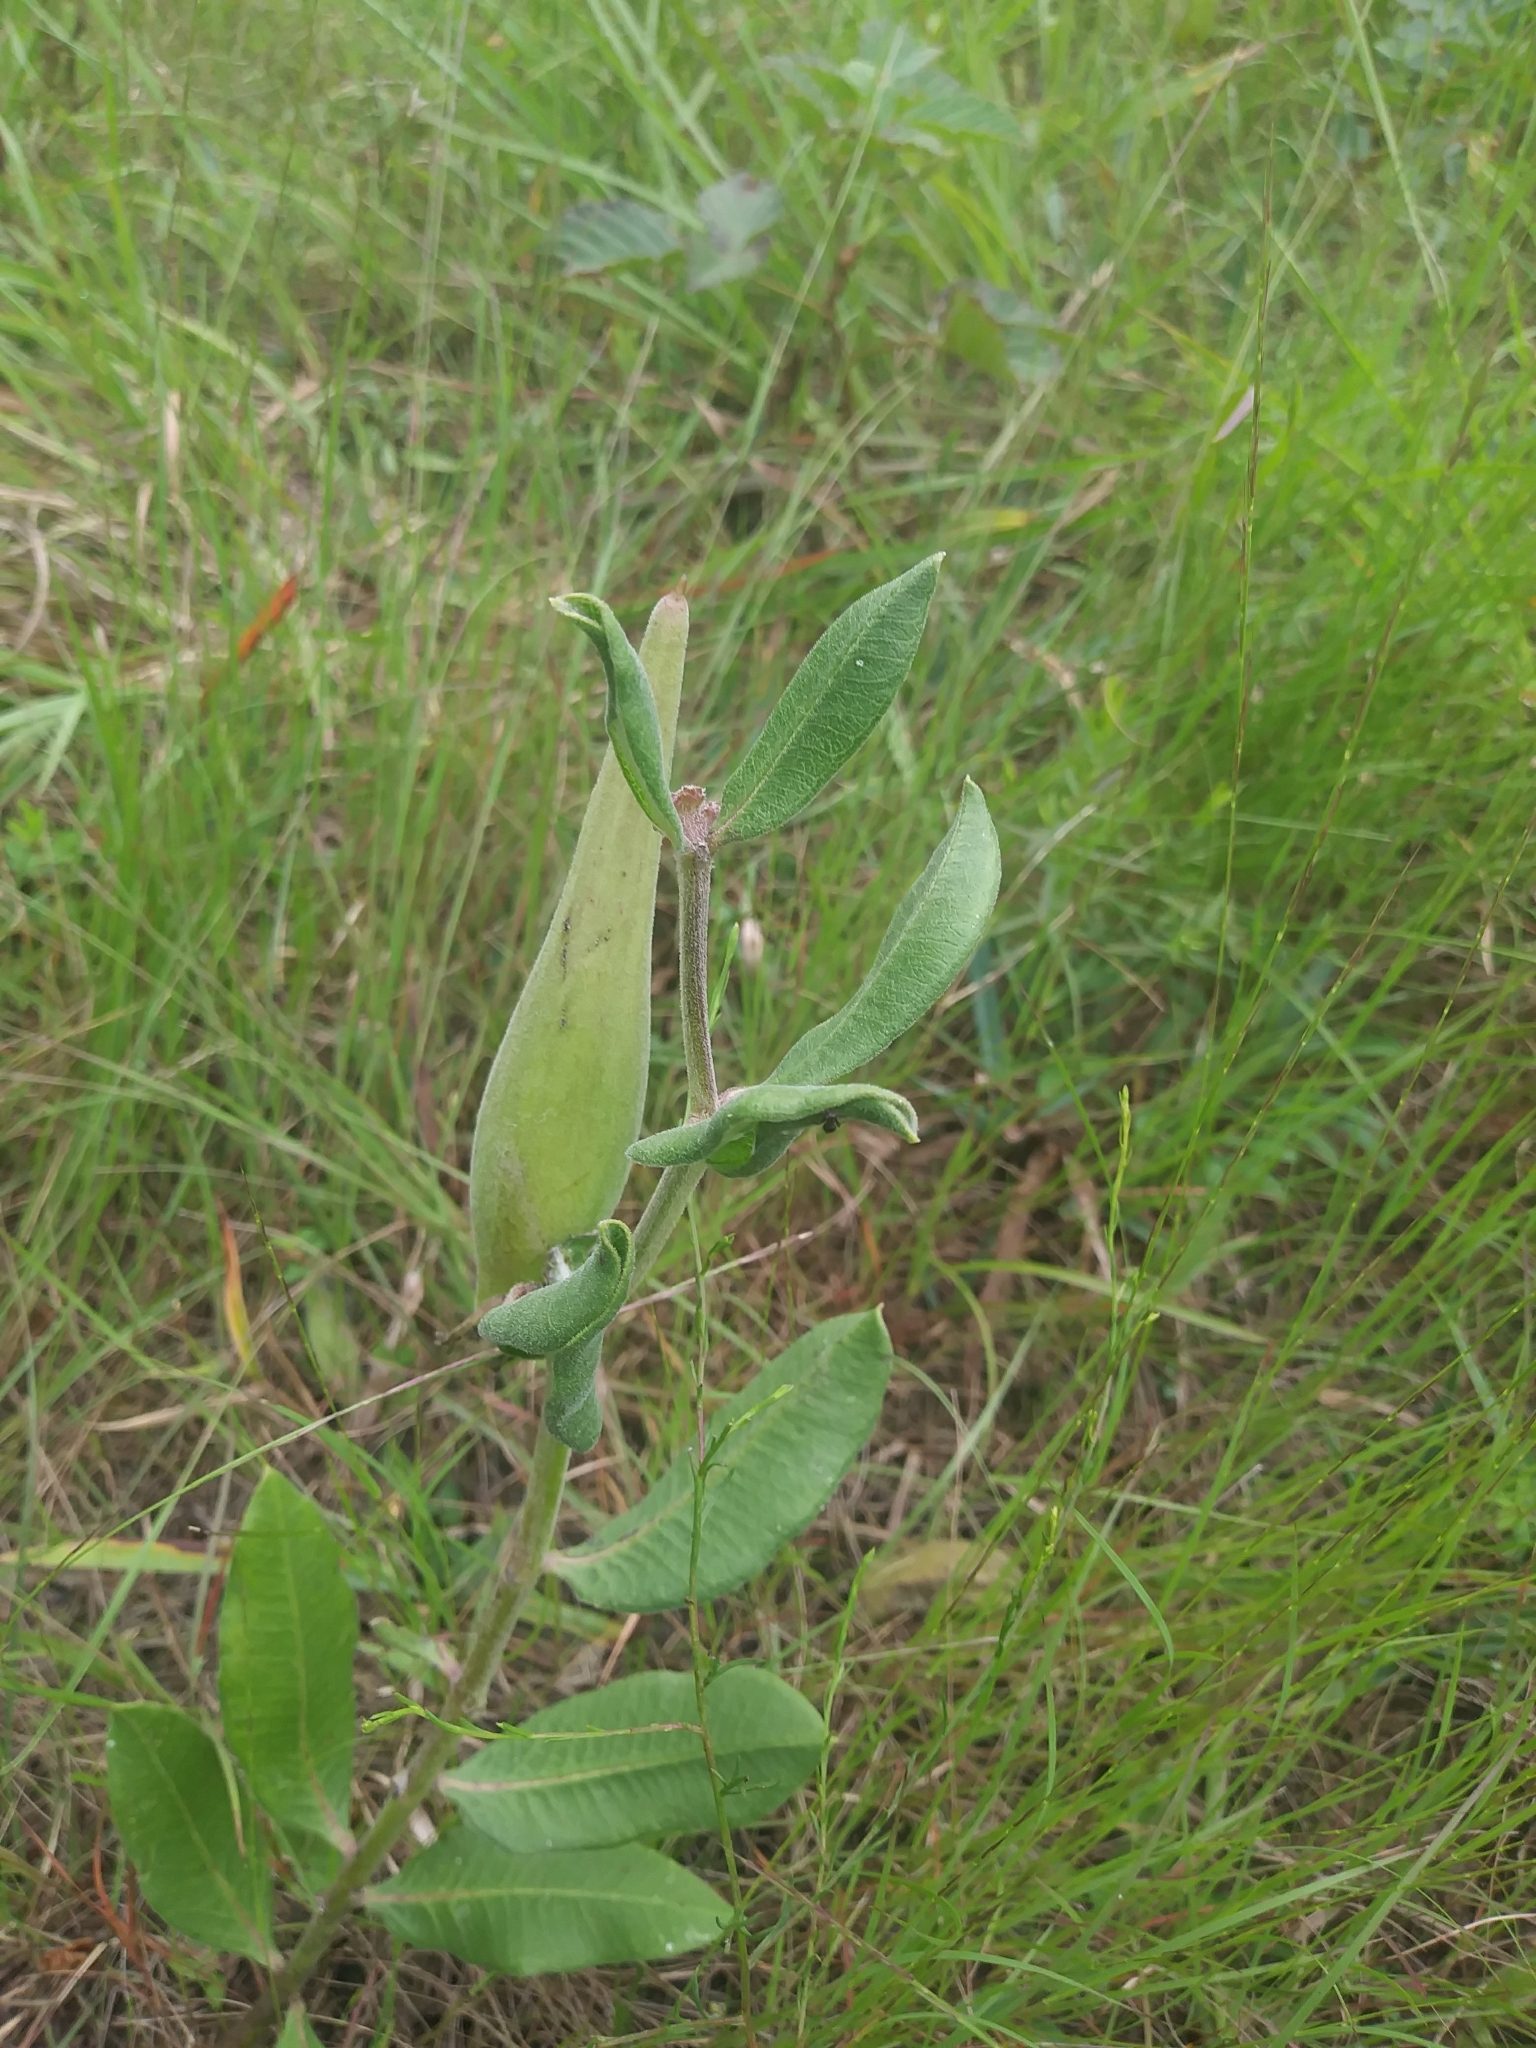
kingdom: Plantae
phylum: Tracheophyta
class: Magnoliopsida
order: Gentianales
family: Apocynaceae
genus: Asclepias
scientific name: Asclepias viridiflora
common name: Green comet milkweed
